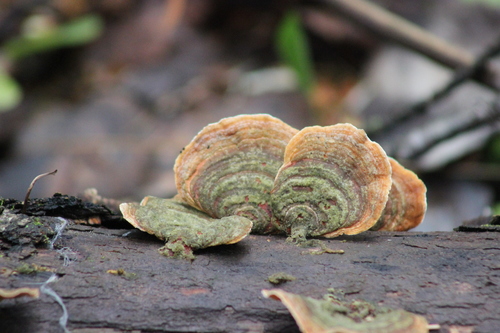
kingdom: Fungi
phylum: Basidiomycota
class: Agaricomycetes
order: Russulales
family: Stereaceae
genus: Stereum
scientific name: Stereum subtomentosum
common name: Yellowing curtain crust
